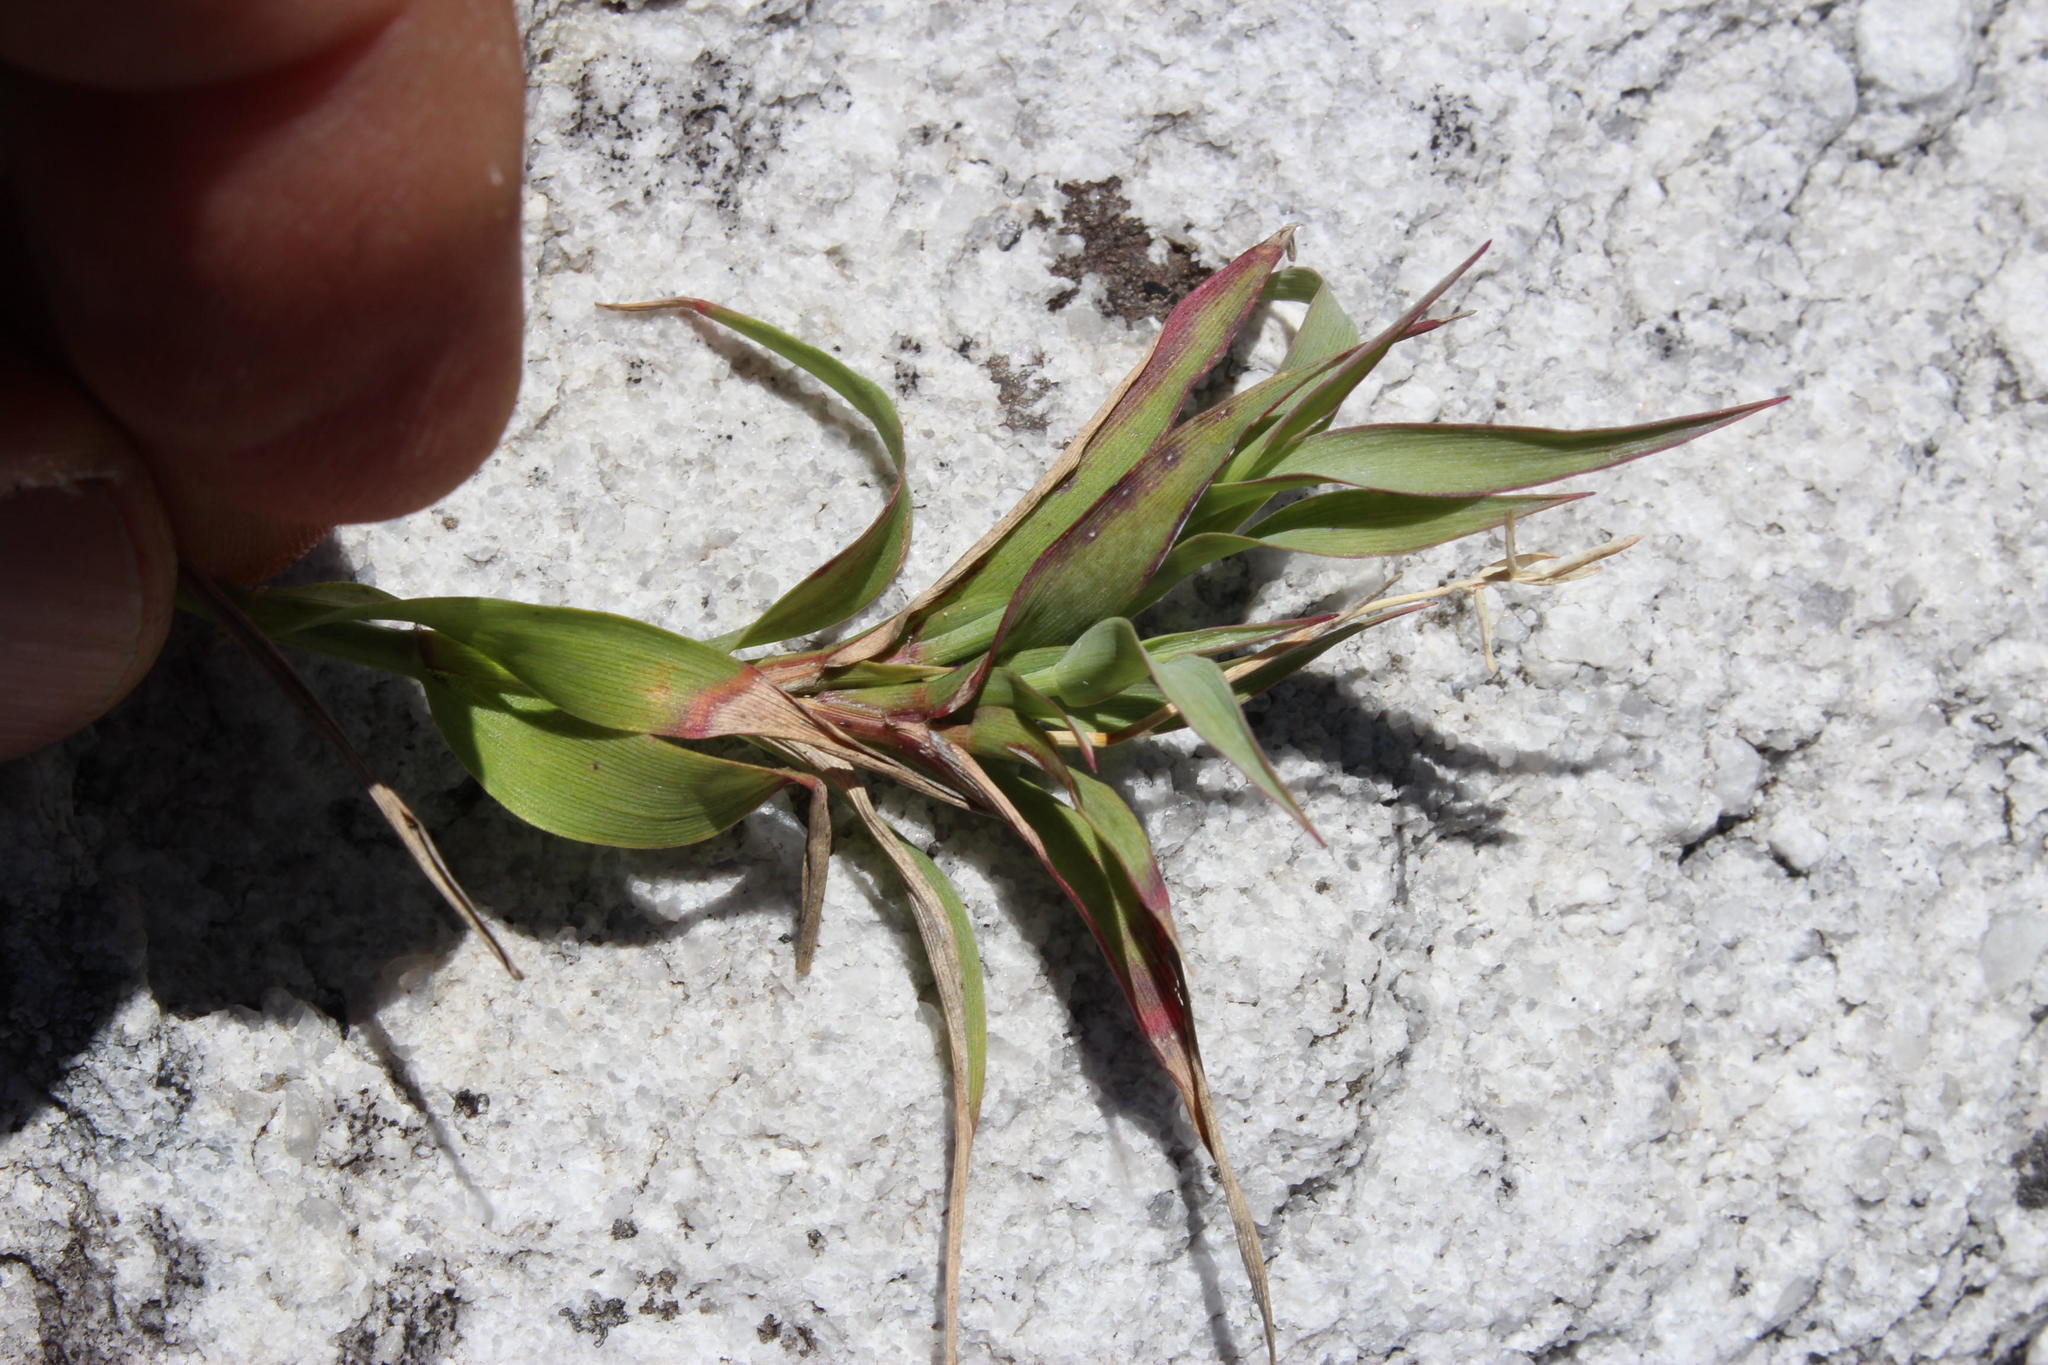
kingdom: Plantae
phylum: Tracheophyta
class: Liliopsida
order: Poales
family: Poaceae
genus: Pseudopentameris
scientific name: Pseudopentameris brachyphylla
